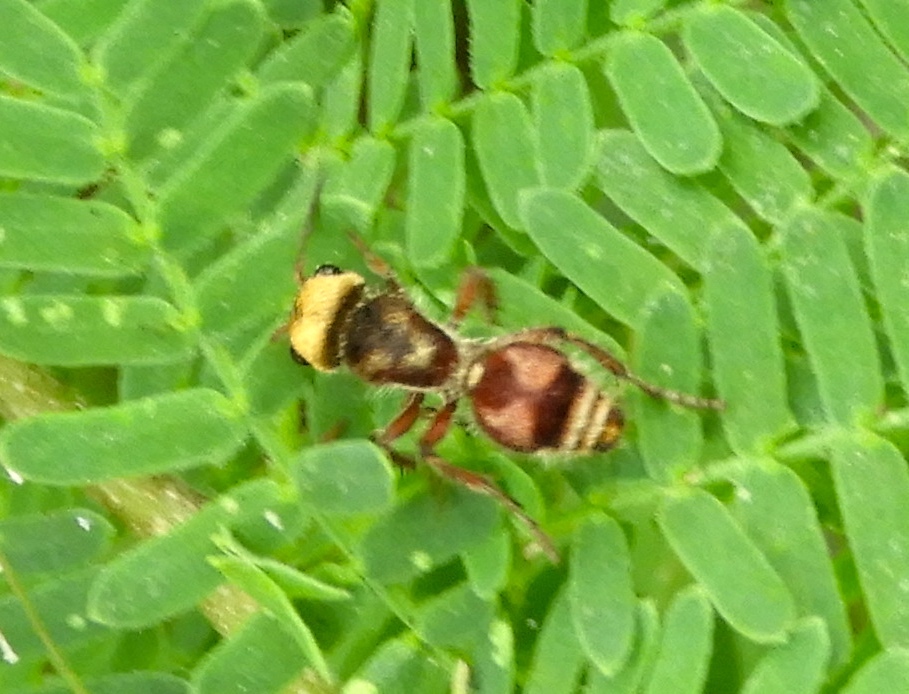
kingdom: Animalia
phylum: Arthropoda
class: Insecta
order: Hymenoptera
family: Mutillidae
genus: Dasymutilla
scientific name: Dasymutilla
